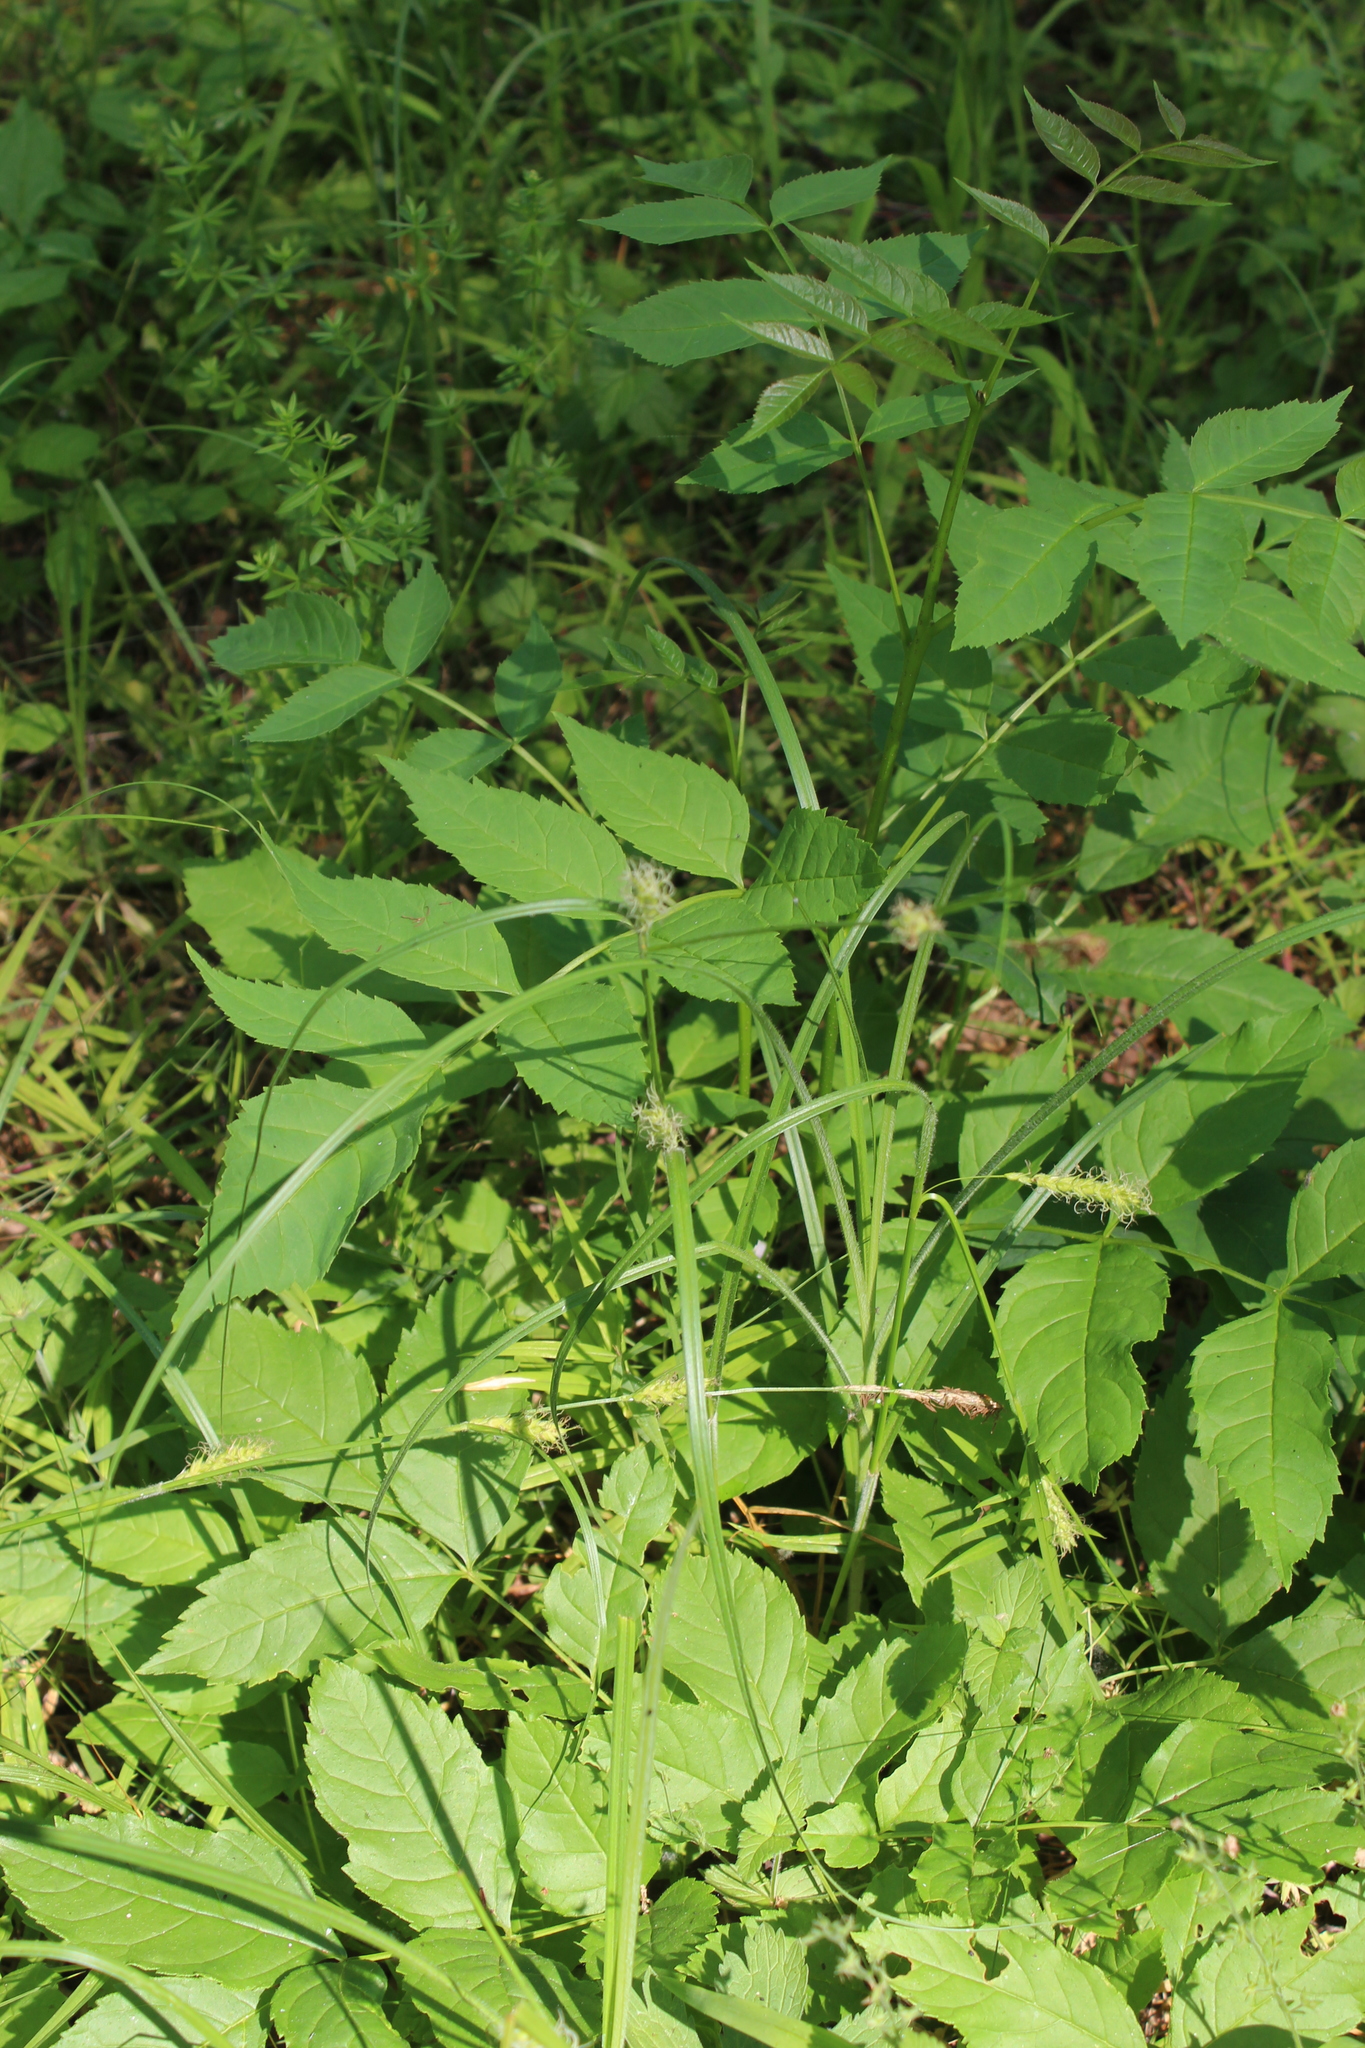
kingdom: Plantae
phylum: Tracheophyta
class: Liliopsida
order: Poales
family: Cyperaceae
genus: Carex
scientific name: Carex hirta
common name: Hairy sedge
